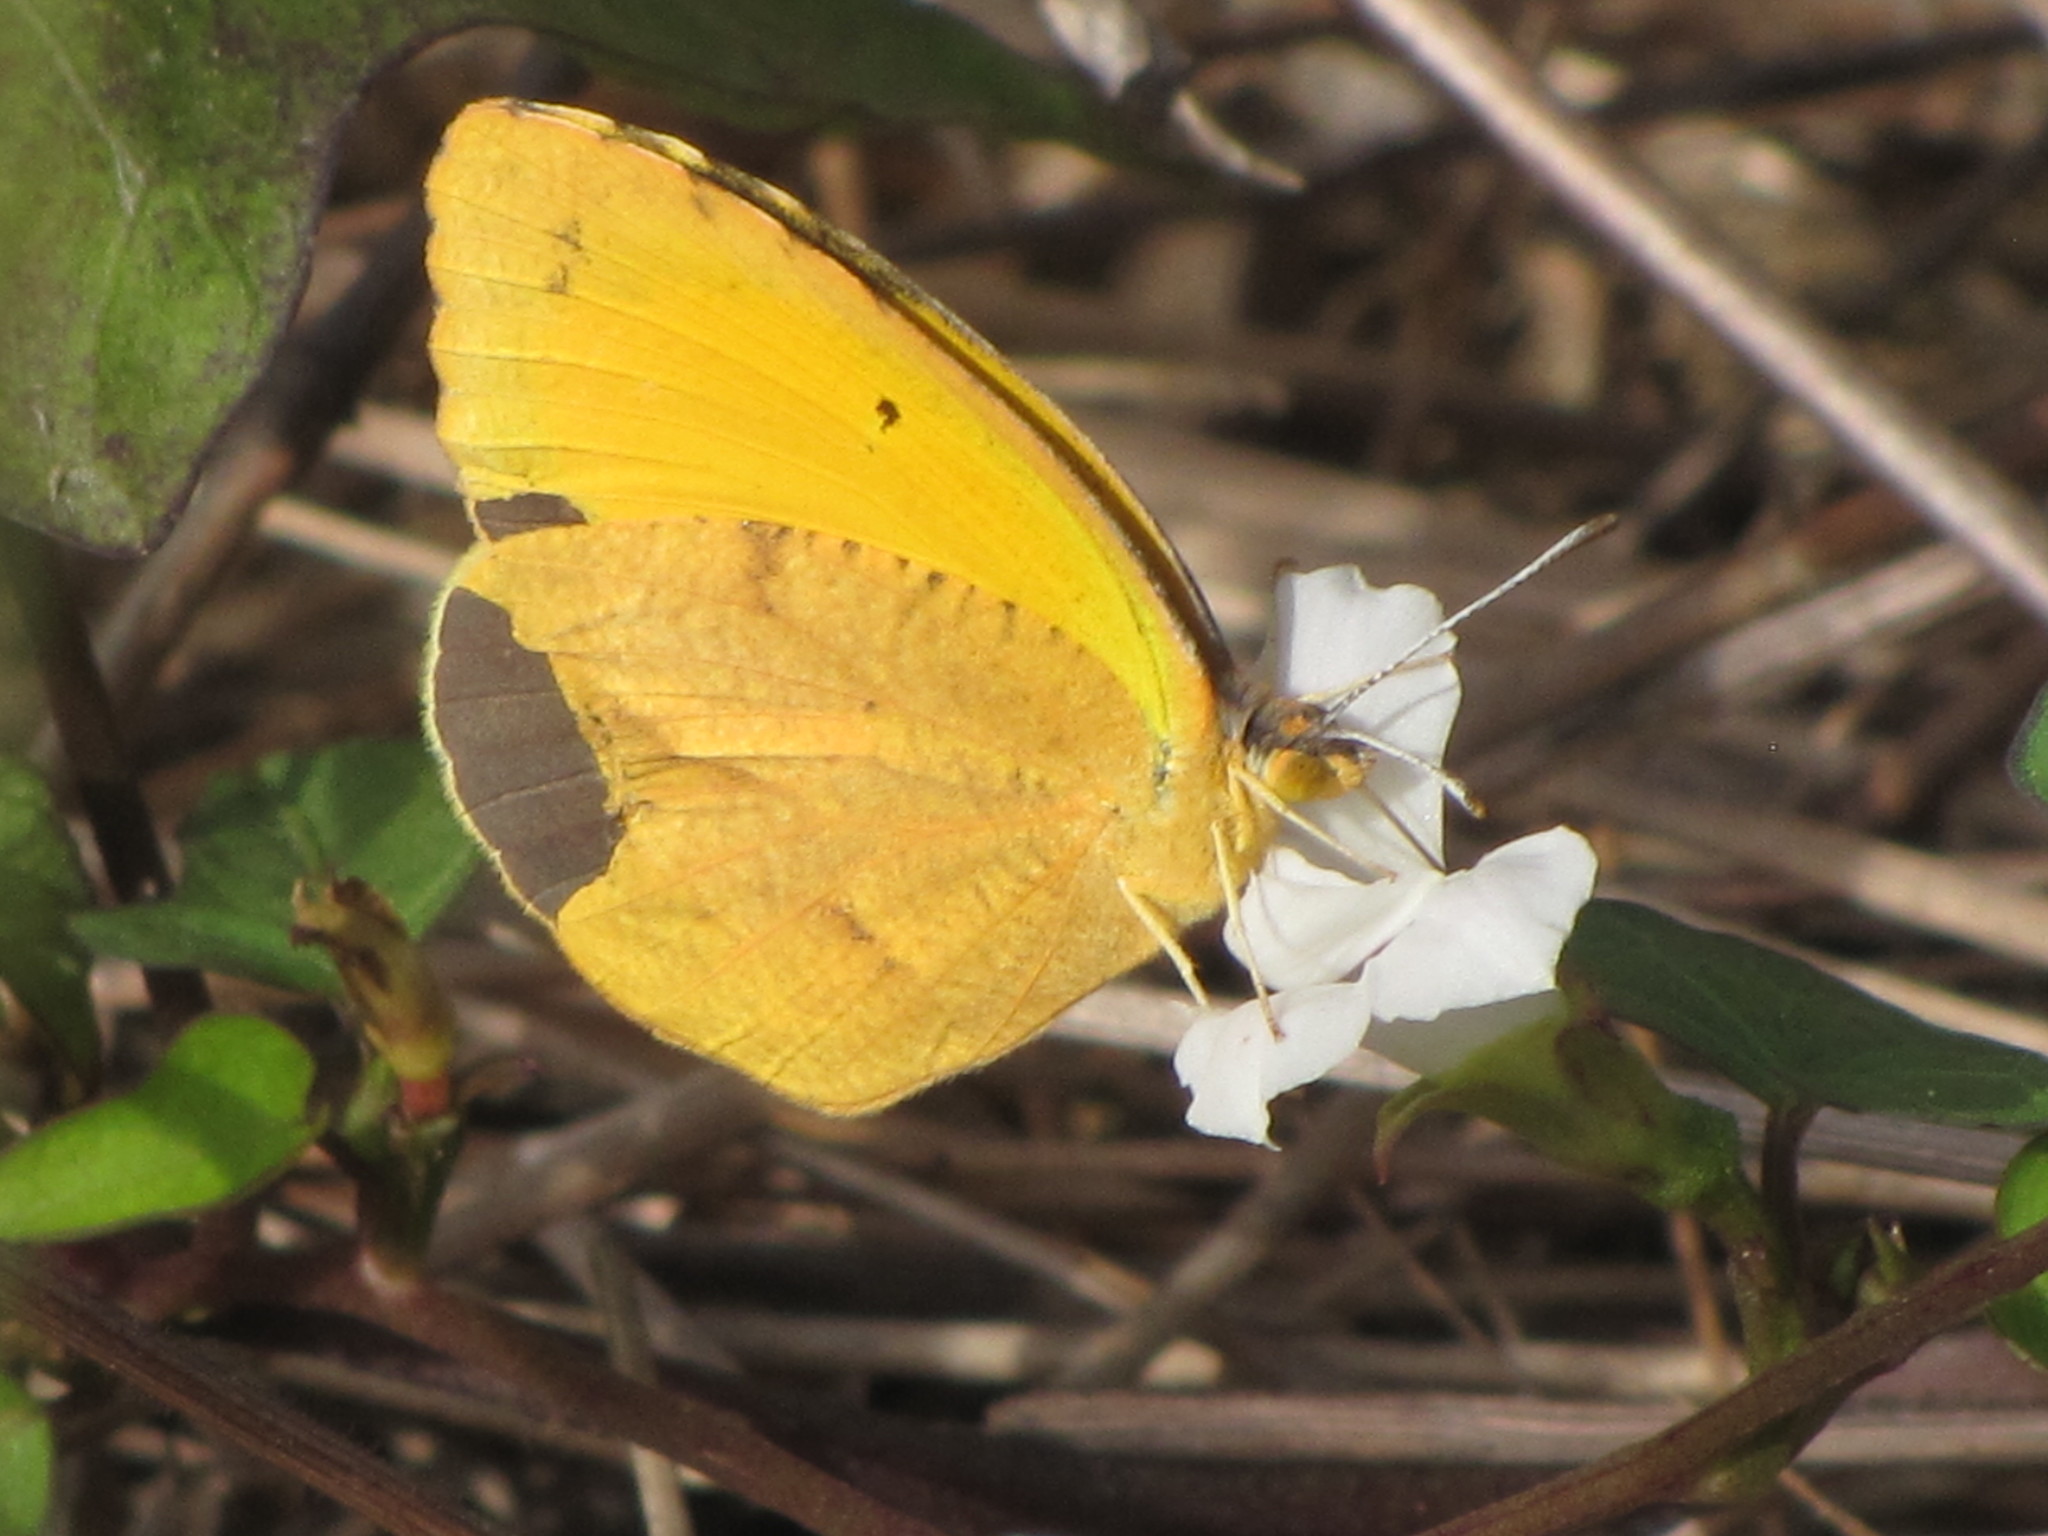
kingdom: Animalia
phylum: Arthropoda
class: Insecta
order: Lepidoptera
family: Pieridae
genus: Abaeis
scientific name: Abaeis nicippe
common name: Sleepy orange
